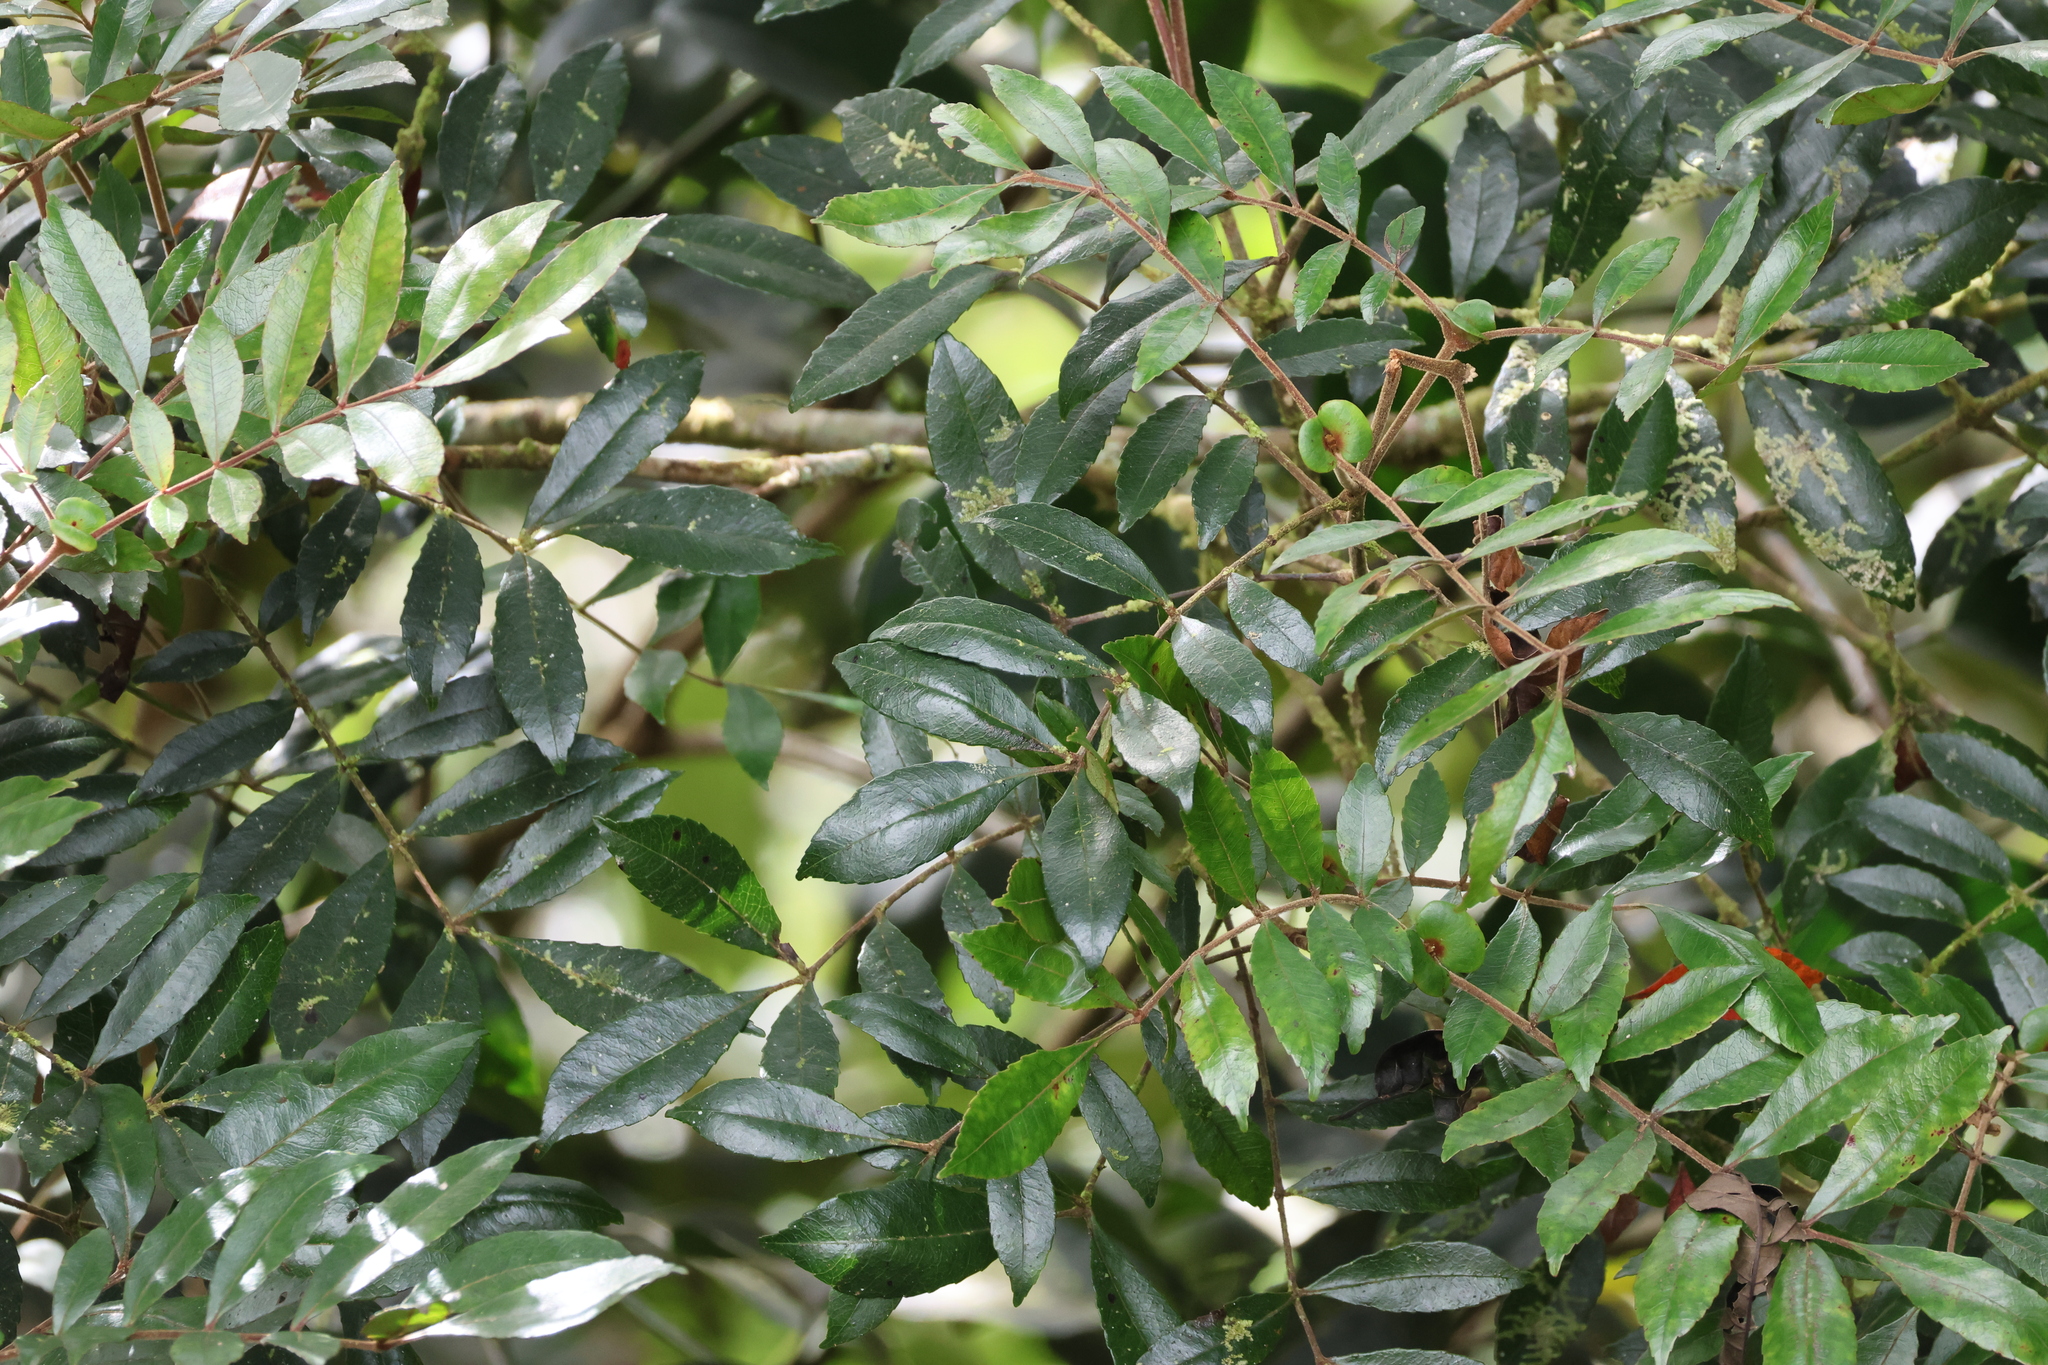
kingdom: Plantae
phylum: Tracheophyta
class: Magnoliopsida
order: Oxalidales
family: Cunoniaceae
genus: Pterophylla
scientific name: Pterophylla fraxinea
